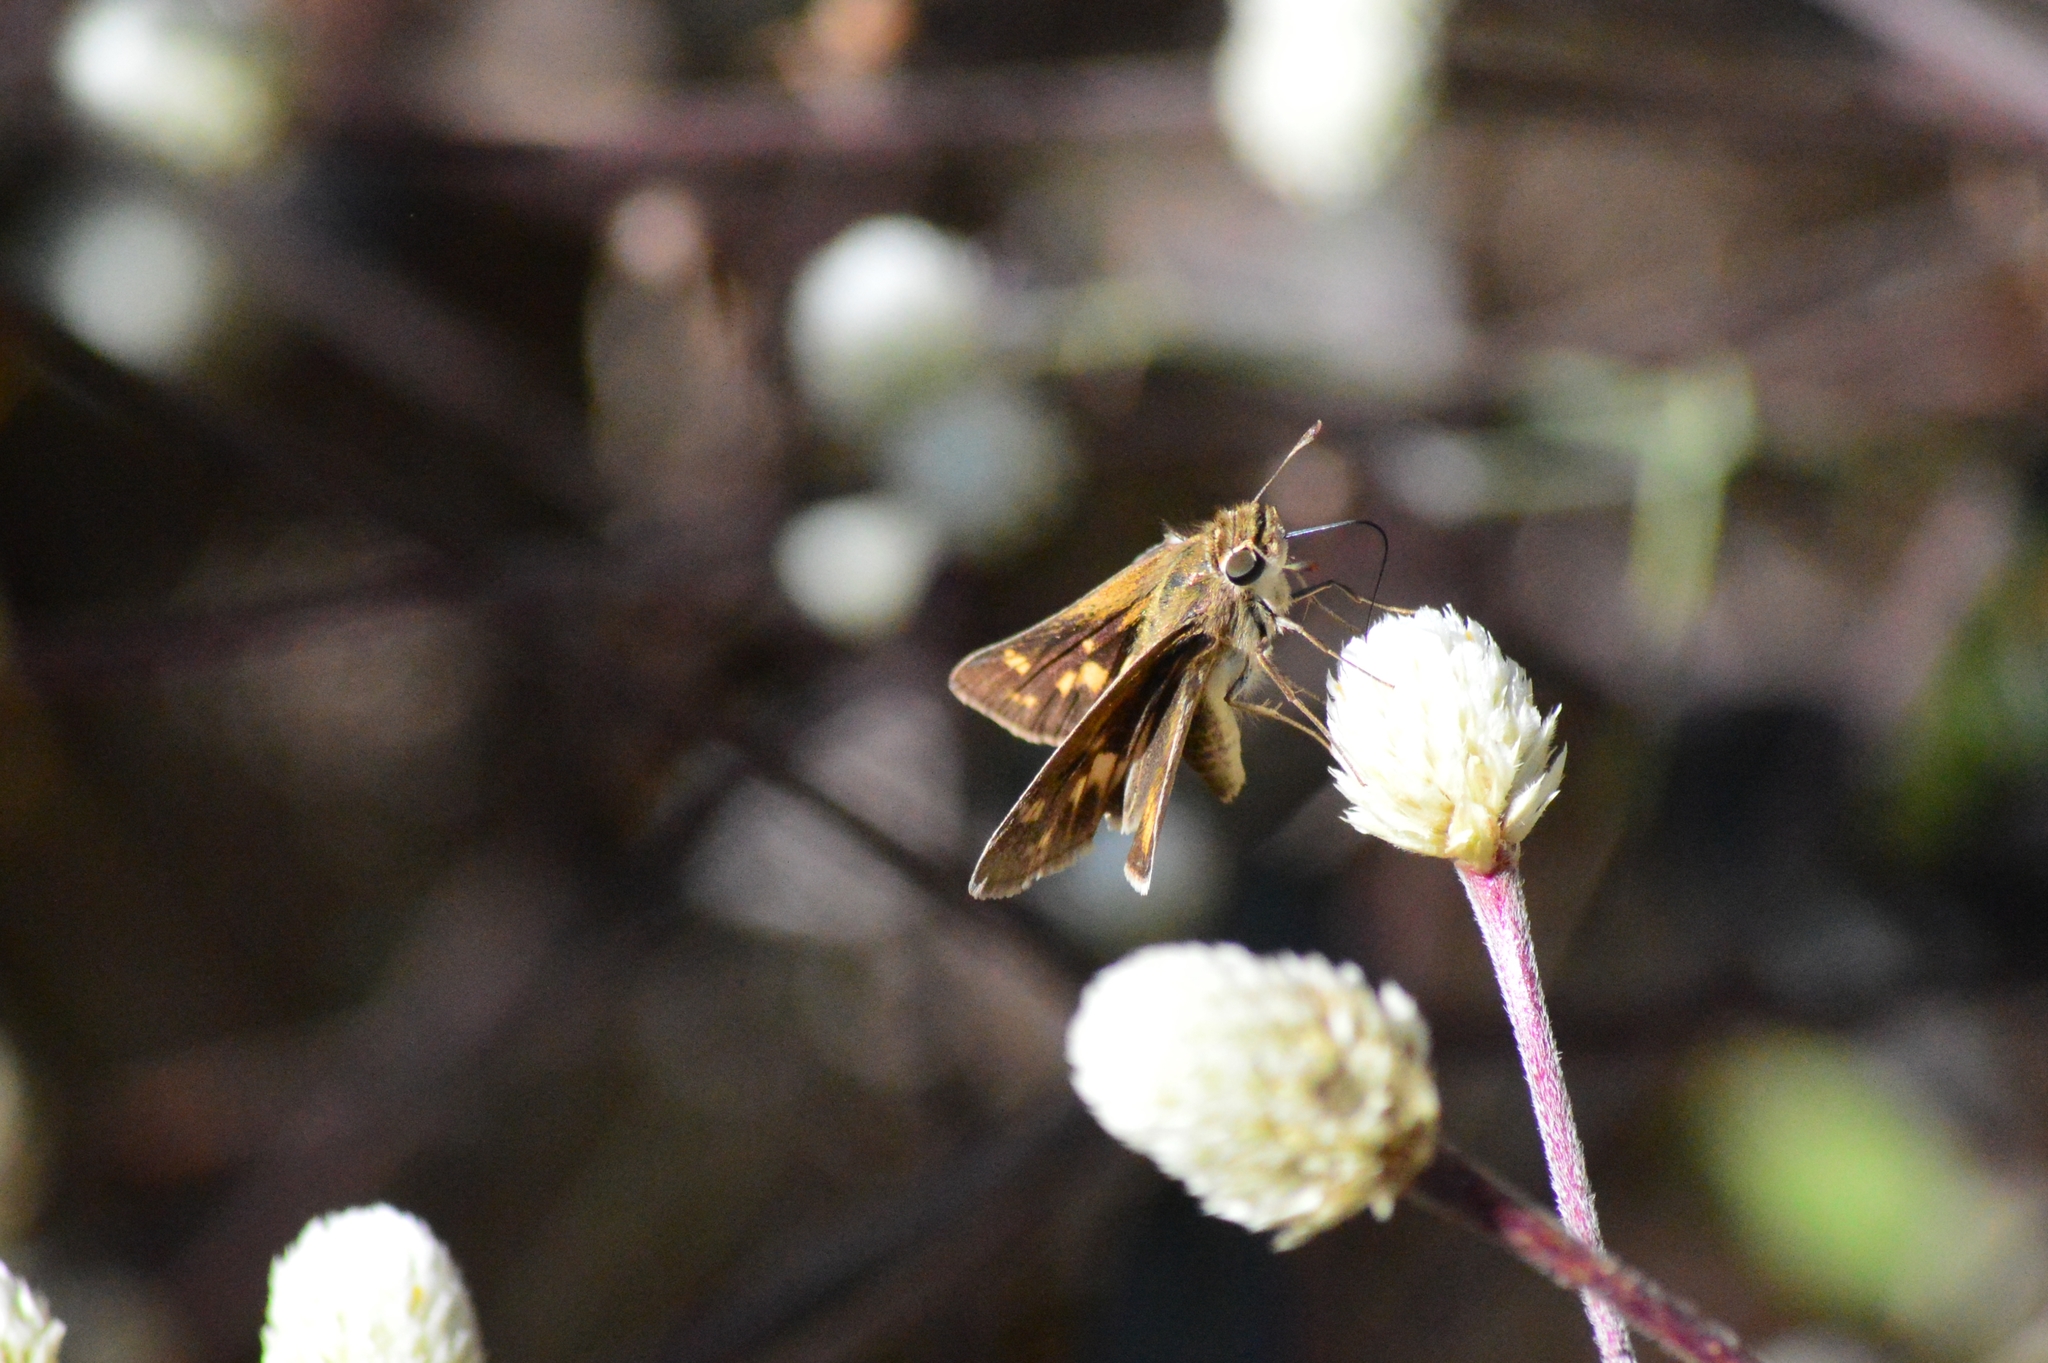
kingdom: Animalia
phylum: Arthropoda
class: Insecta
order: Lepidoptera
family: Hesperiidae
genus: Hylephila
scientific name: Hylephila phyleus
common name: Fiery skipper
